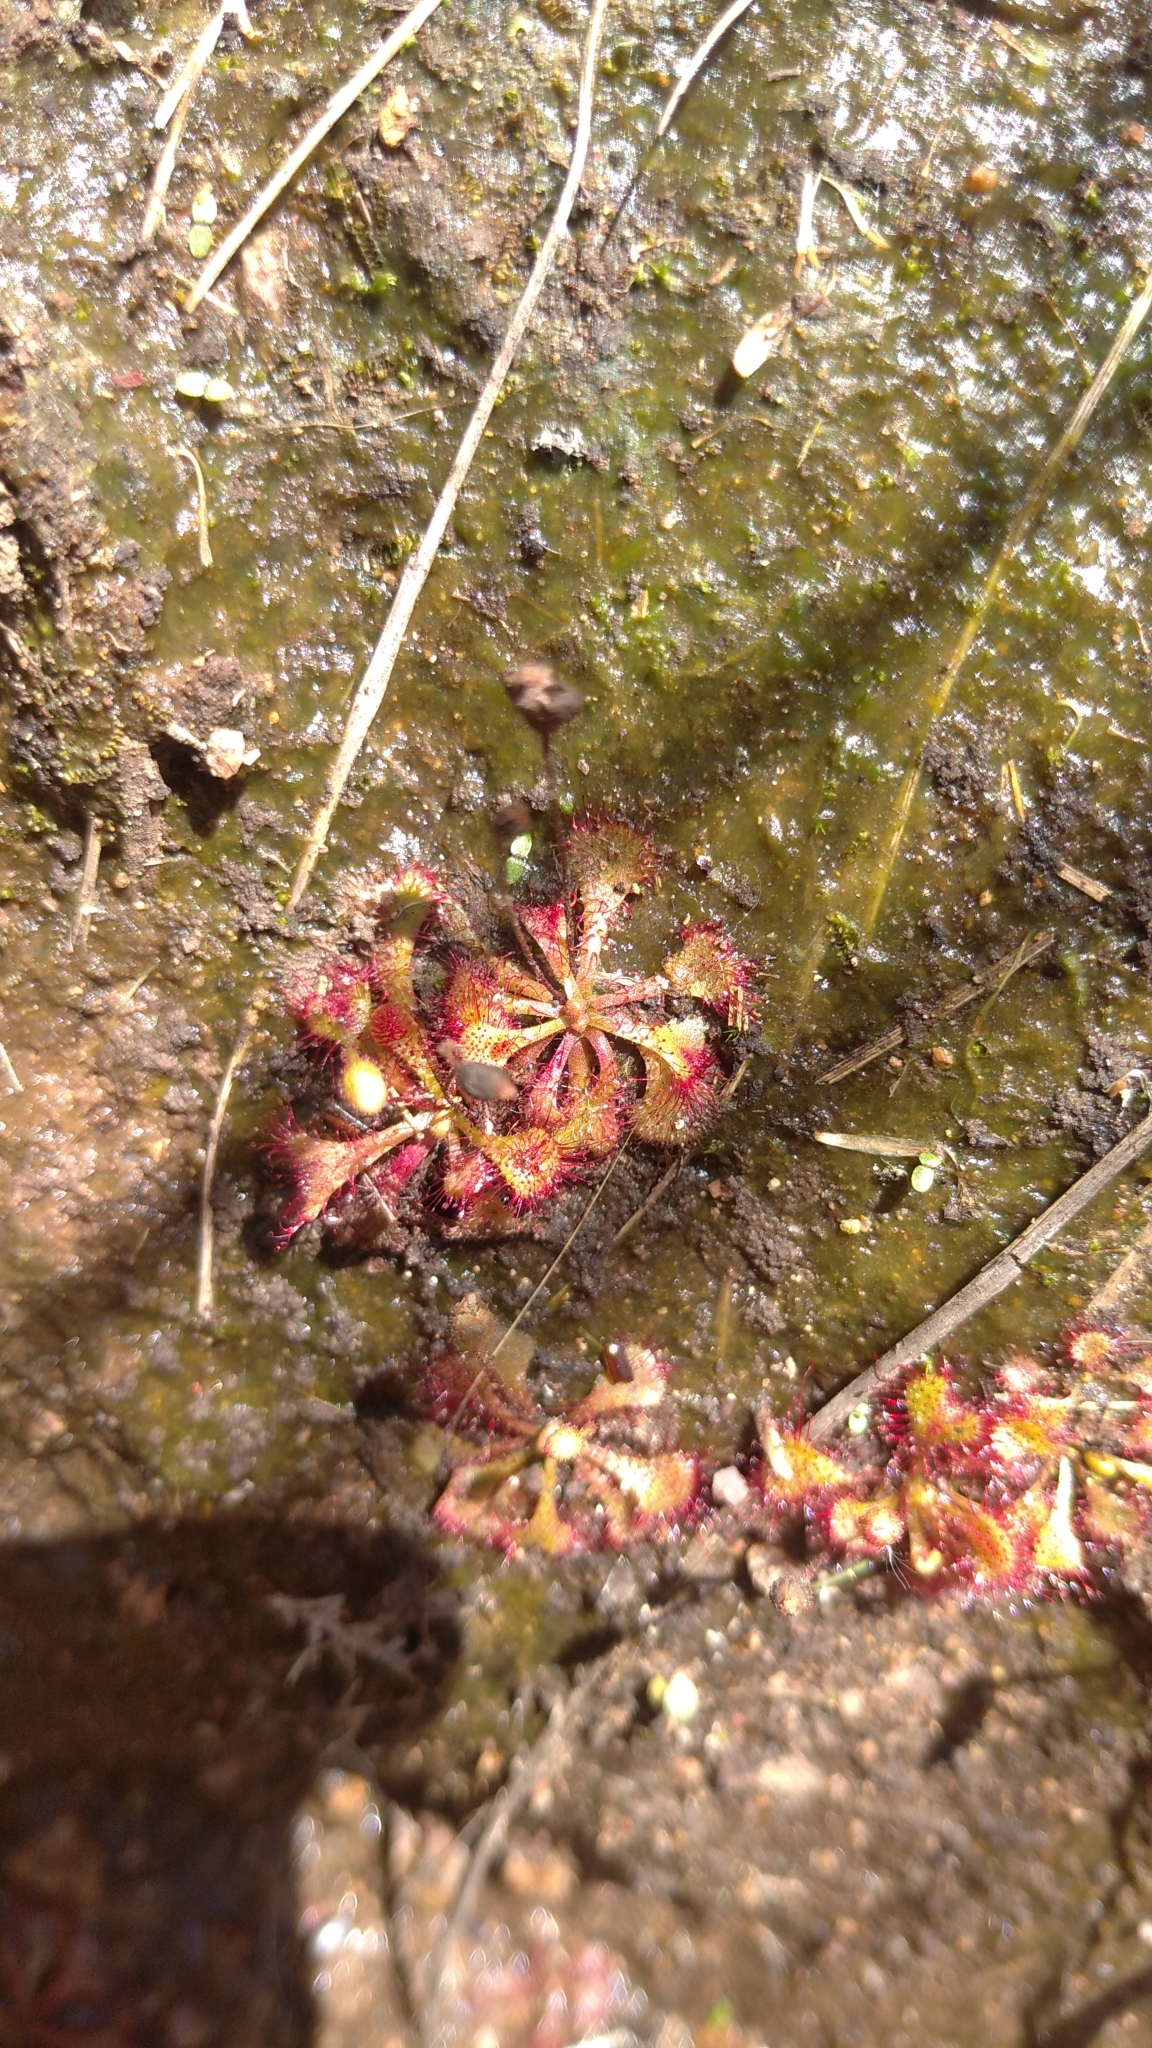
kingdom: Plantae
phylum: Tracheophyta
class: Magnoliopsida
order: Caryophyllales
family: Droseraceae
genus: Drosera
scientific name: Drosera brevifolia
